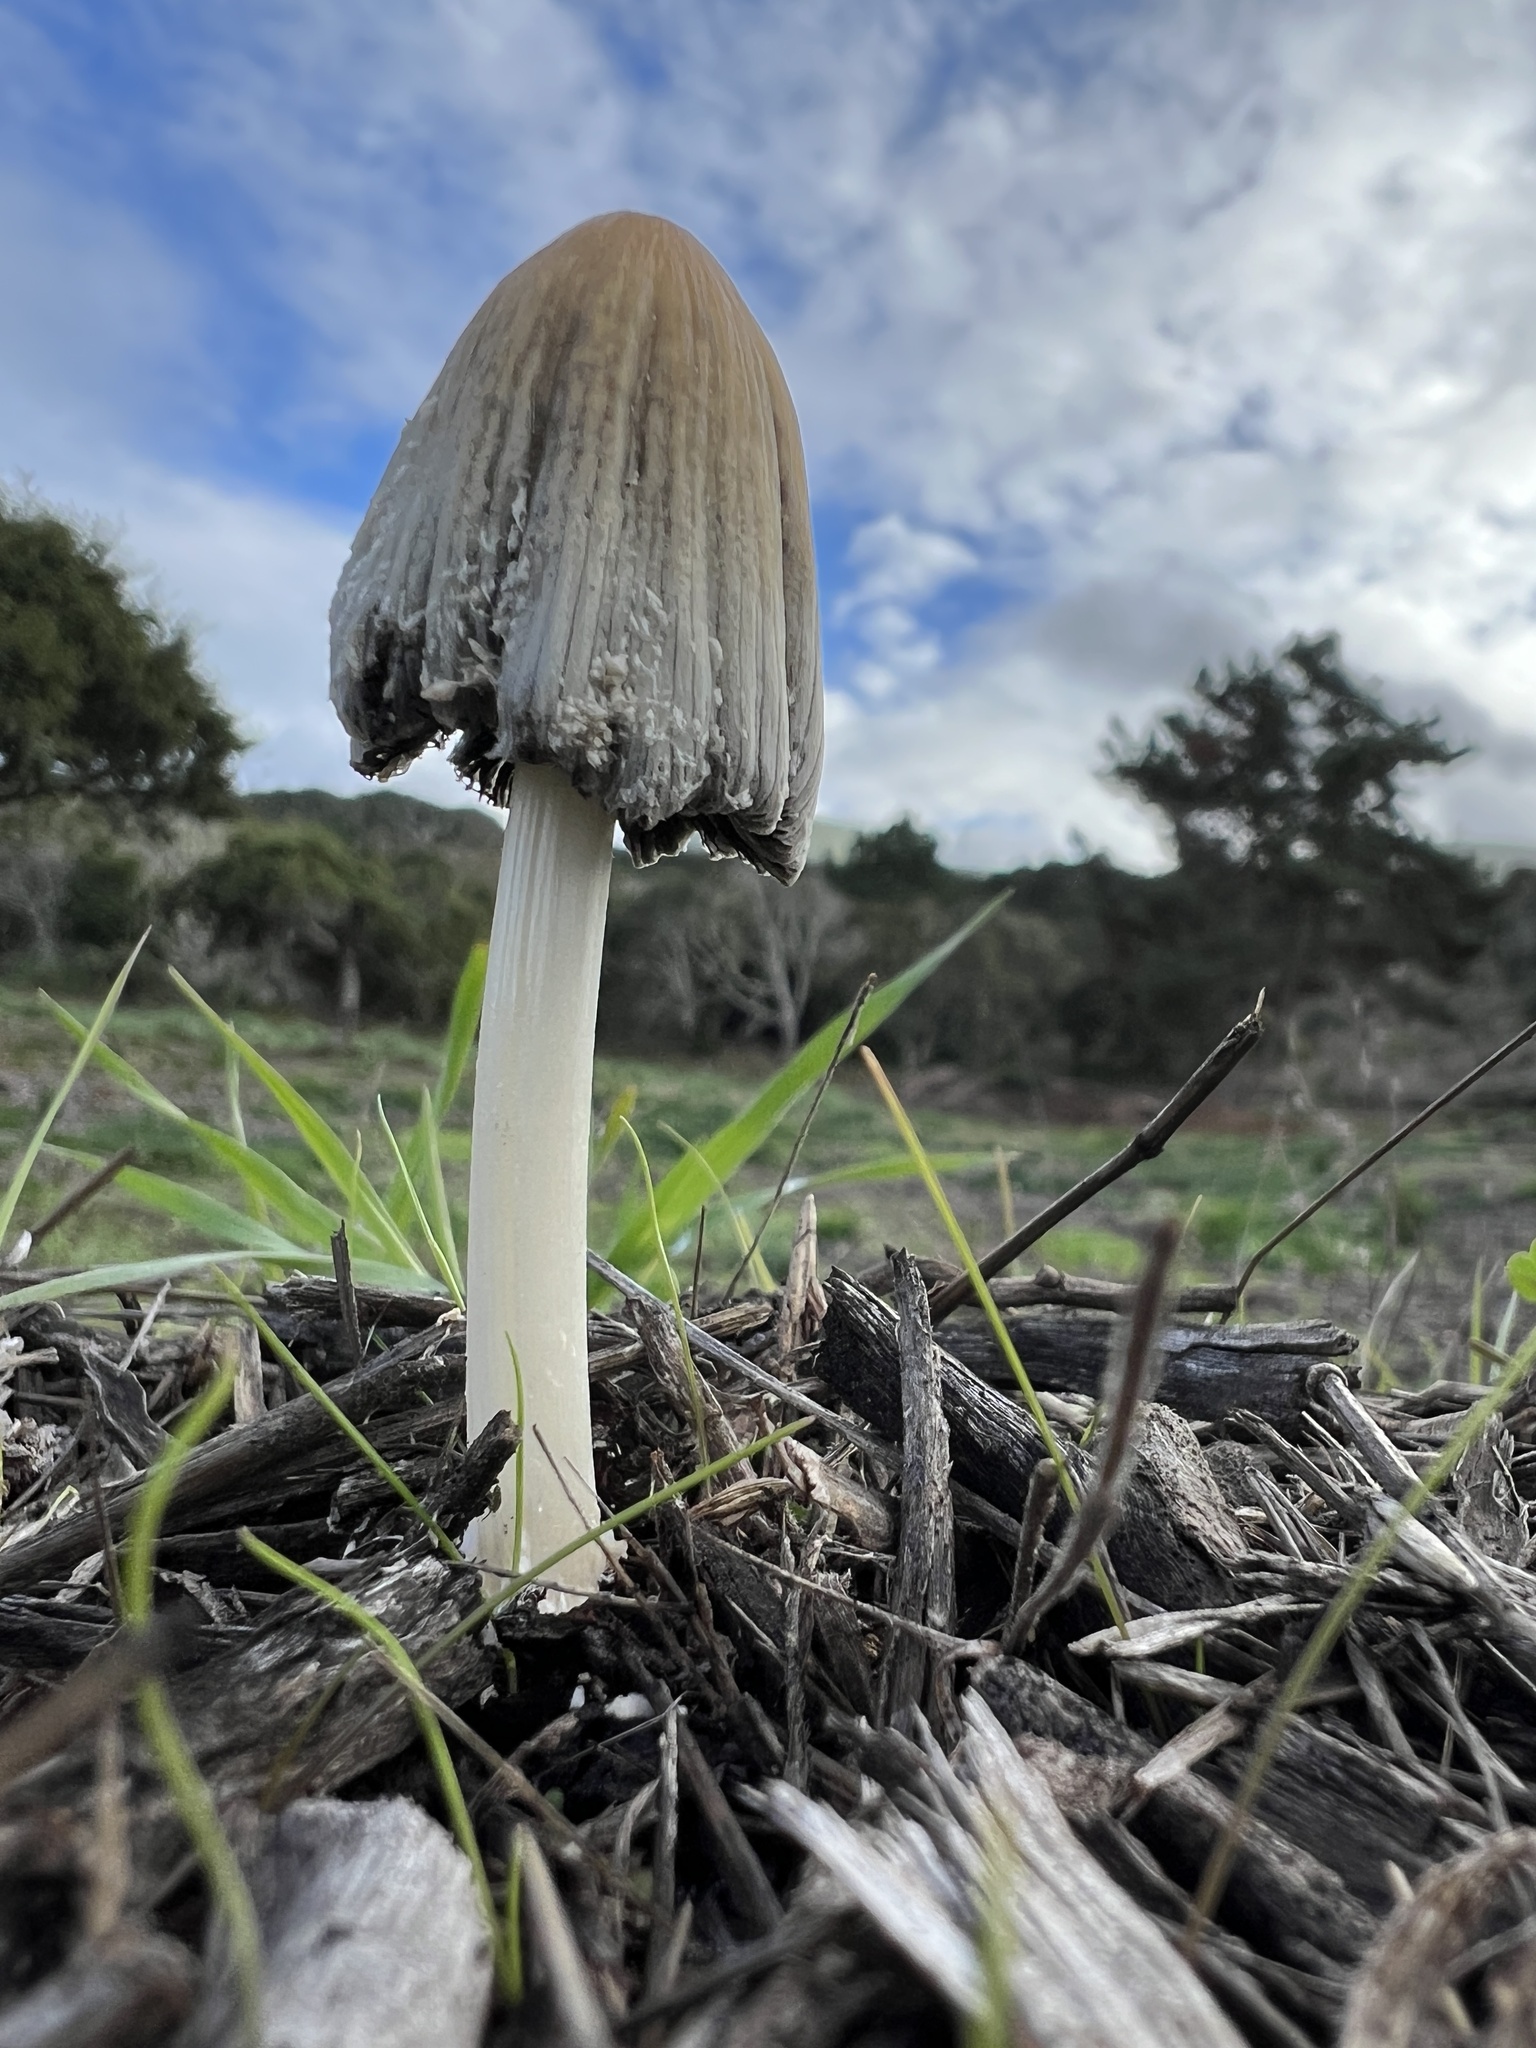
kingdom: Fungi
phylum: Basidiomycota
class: Agaricomycetes
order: Agaricales
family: Psathyrellaceae
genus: Coprinellus
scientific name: Coprinellus flocculosus
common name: Flocculose inkcap
